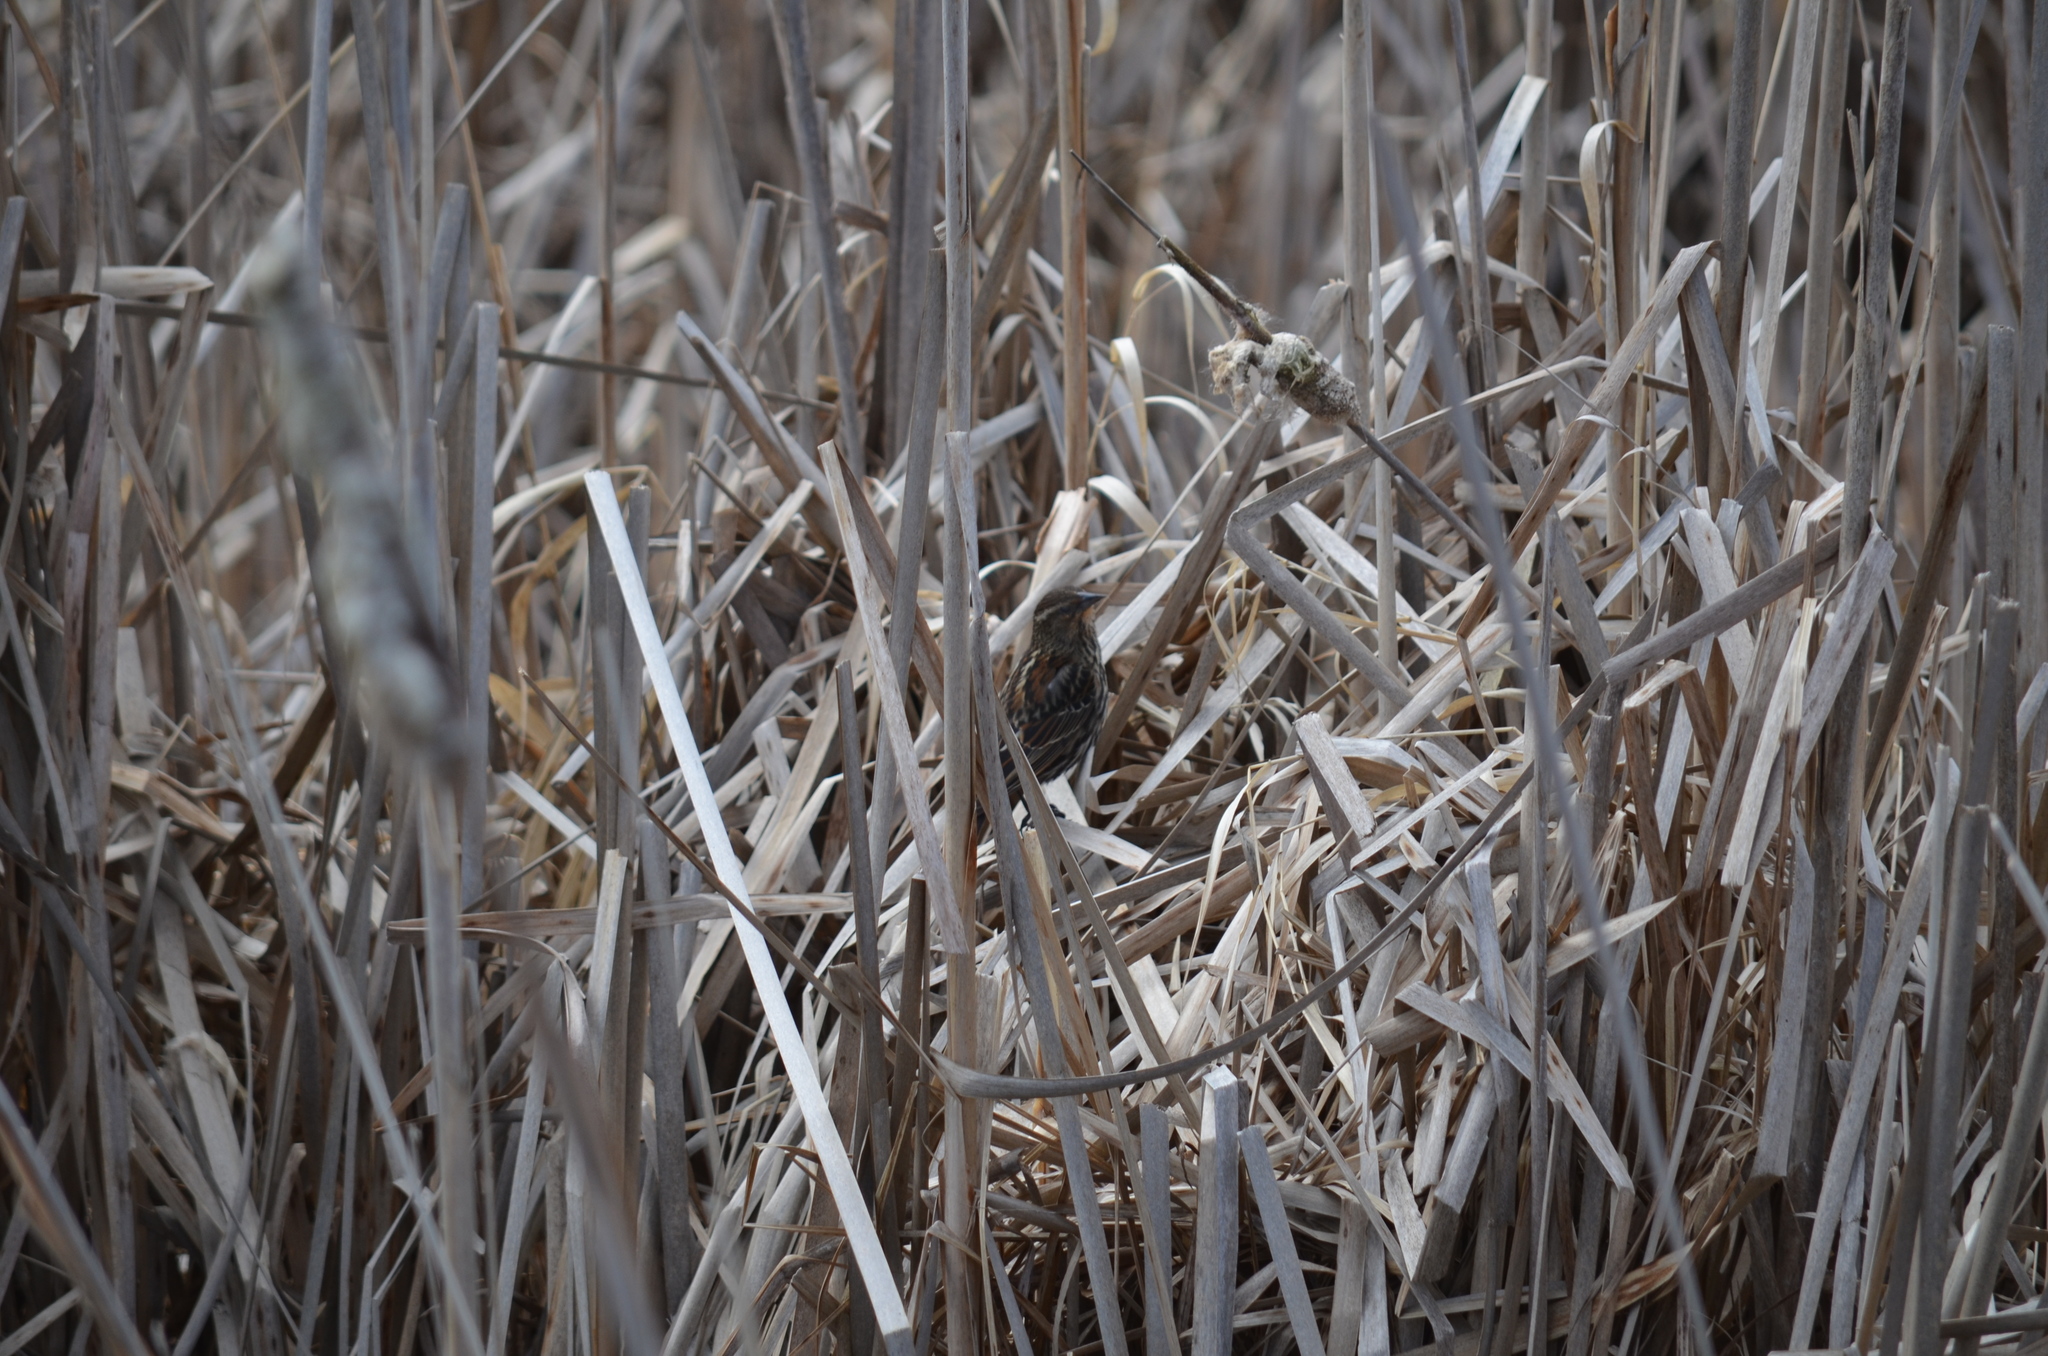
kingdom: Animalia
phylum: Chordata
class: Aves
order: Passeriformes
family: Icteridae
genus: Agelaius
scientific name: Agelaius phoeniceus
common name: Red-winged blackbird
